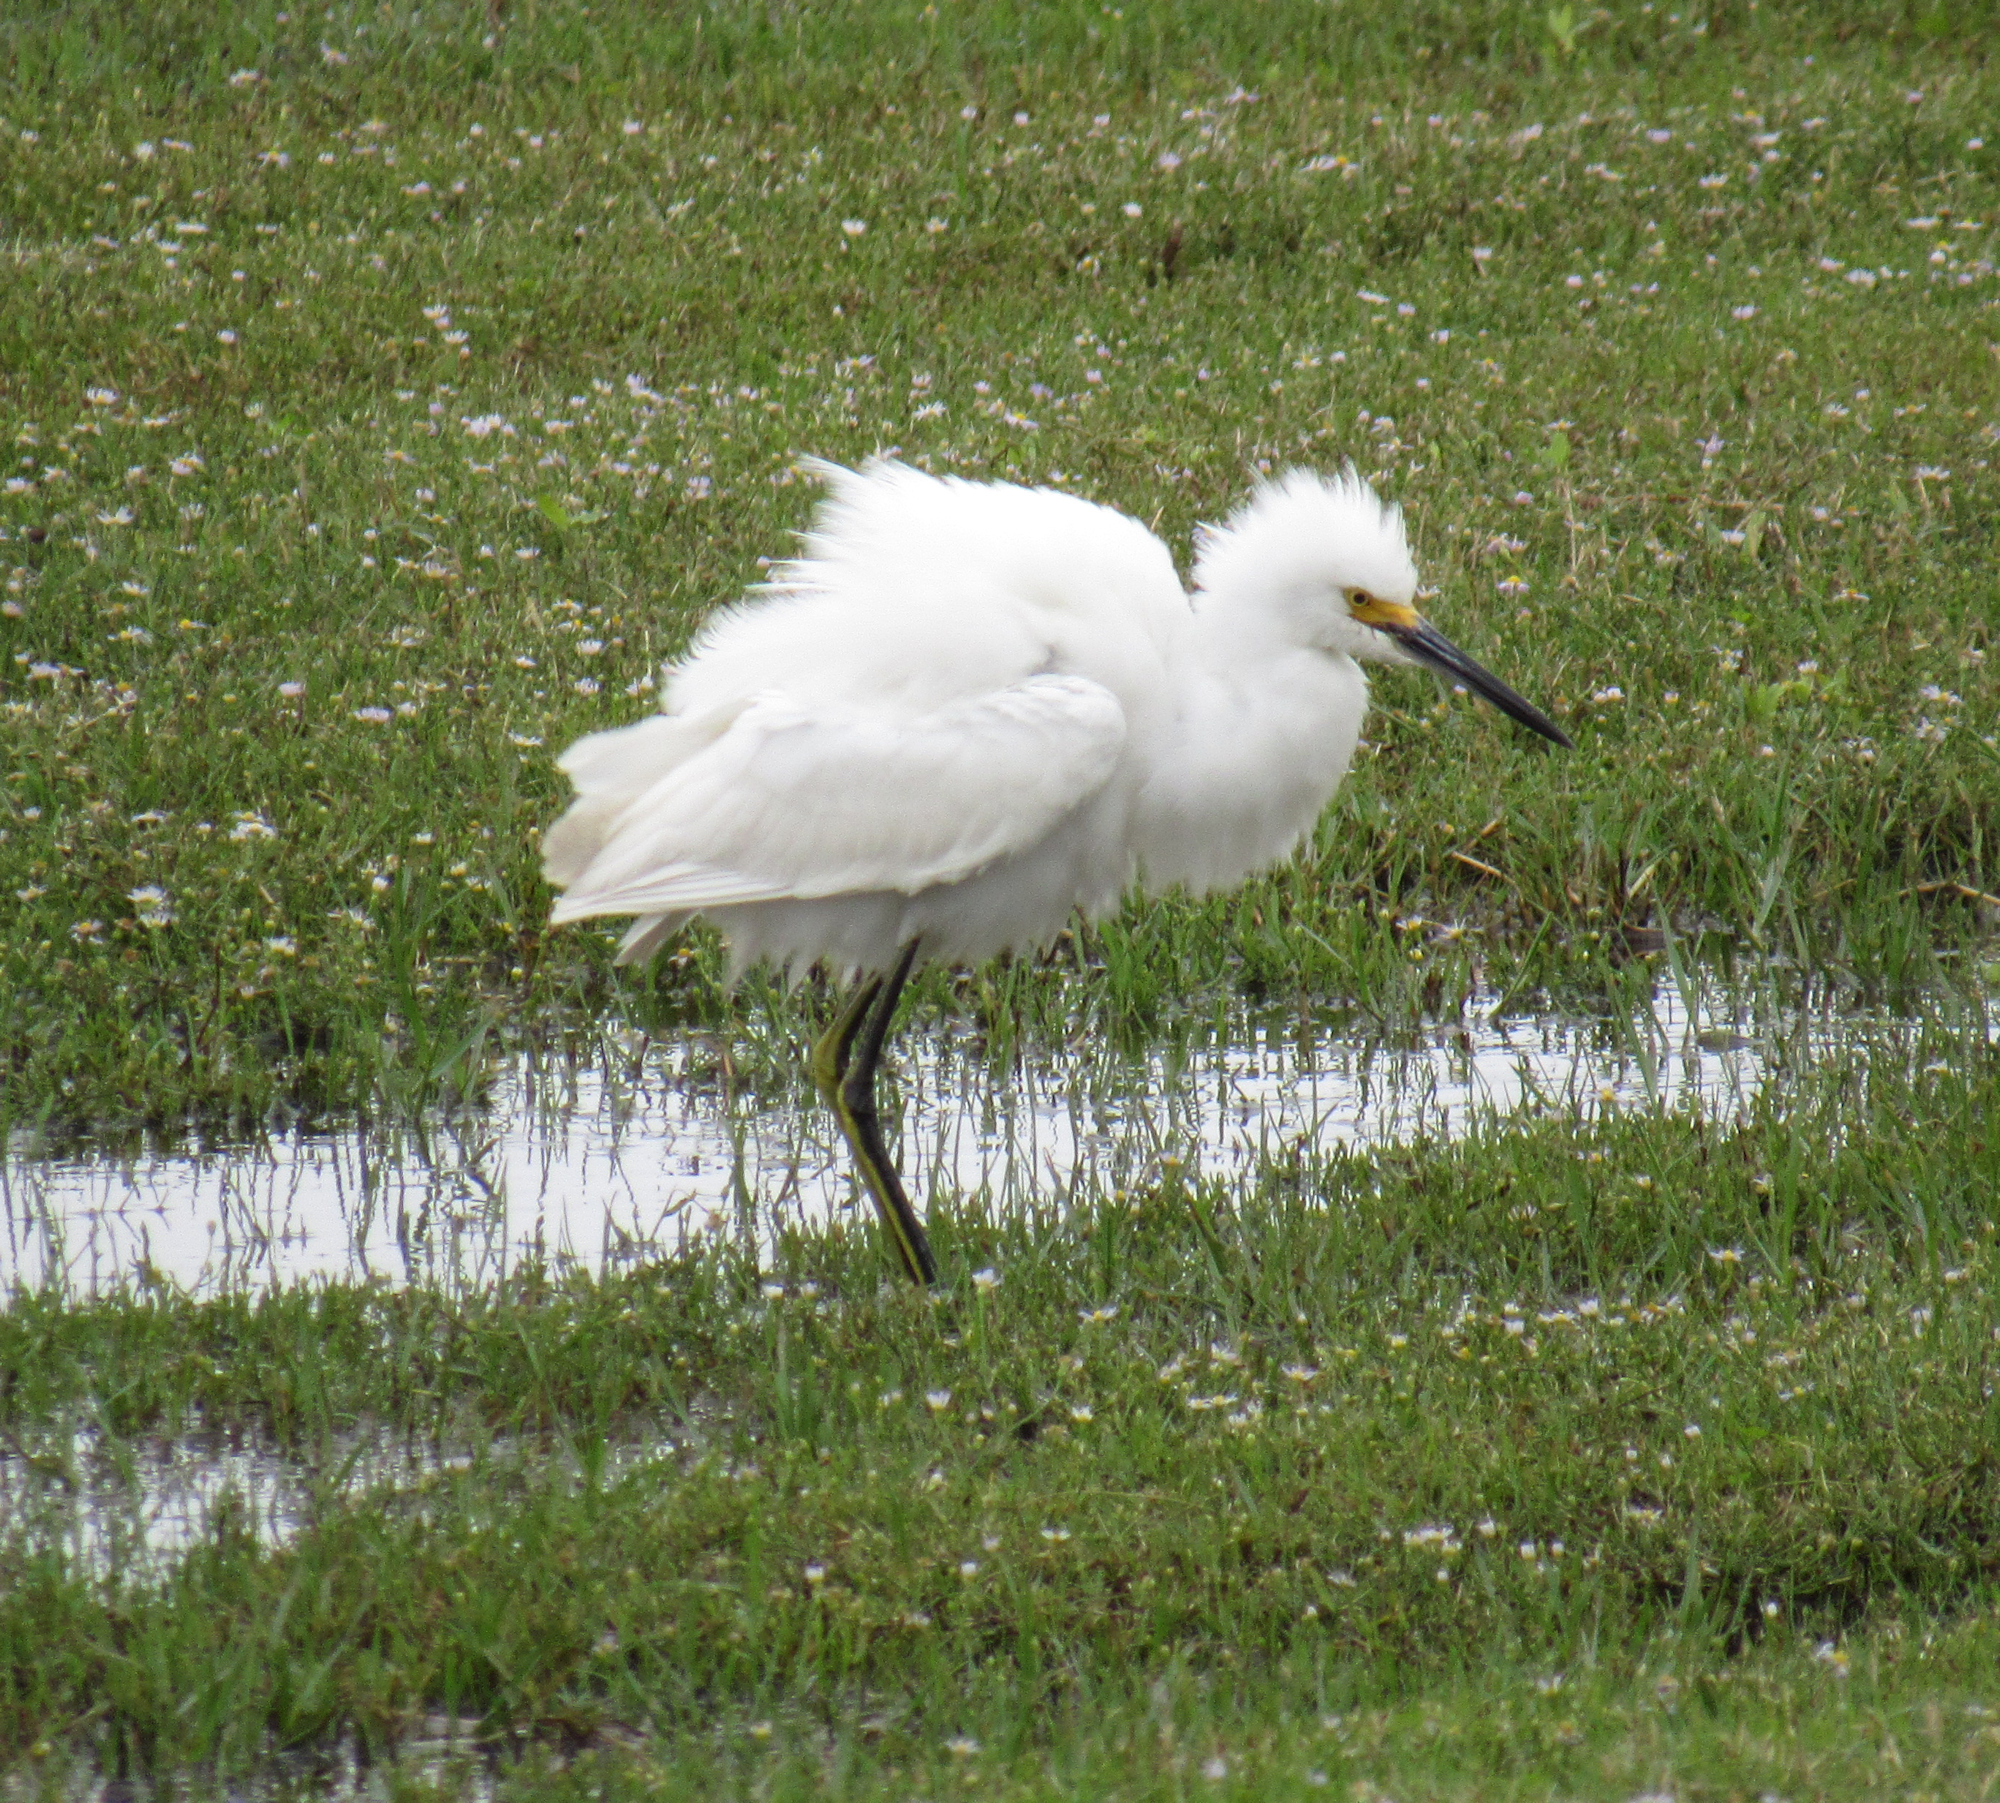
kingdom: Animalia
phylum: Chordata
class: Aves
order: Pelecaniformes
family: Ardeidae
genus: Egretta
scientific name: Egretta thula
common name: Snowy egret
